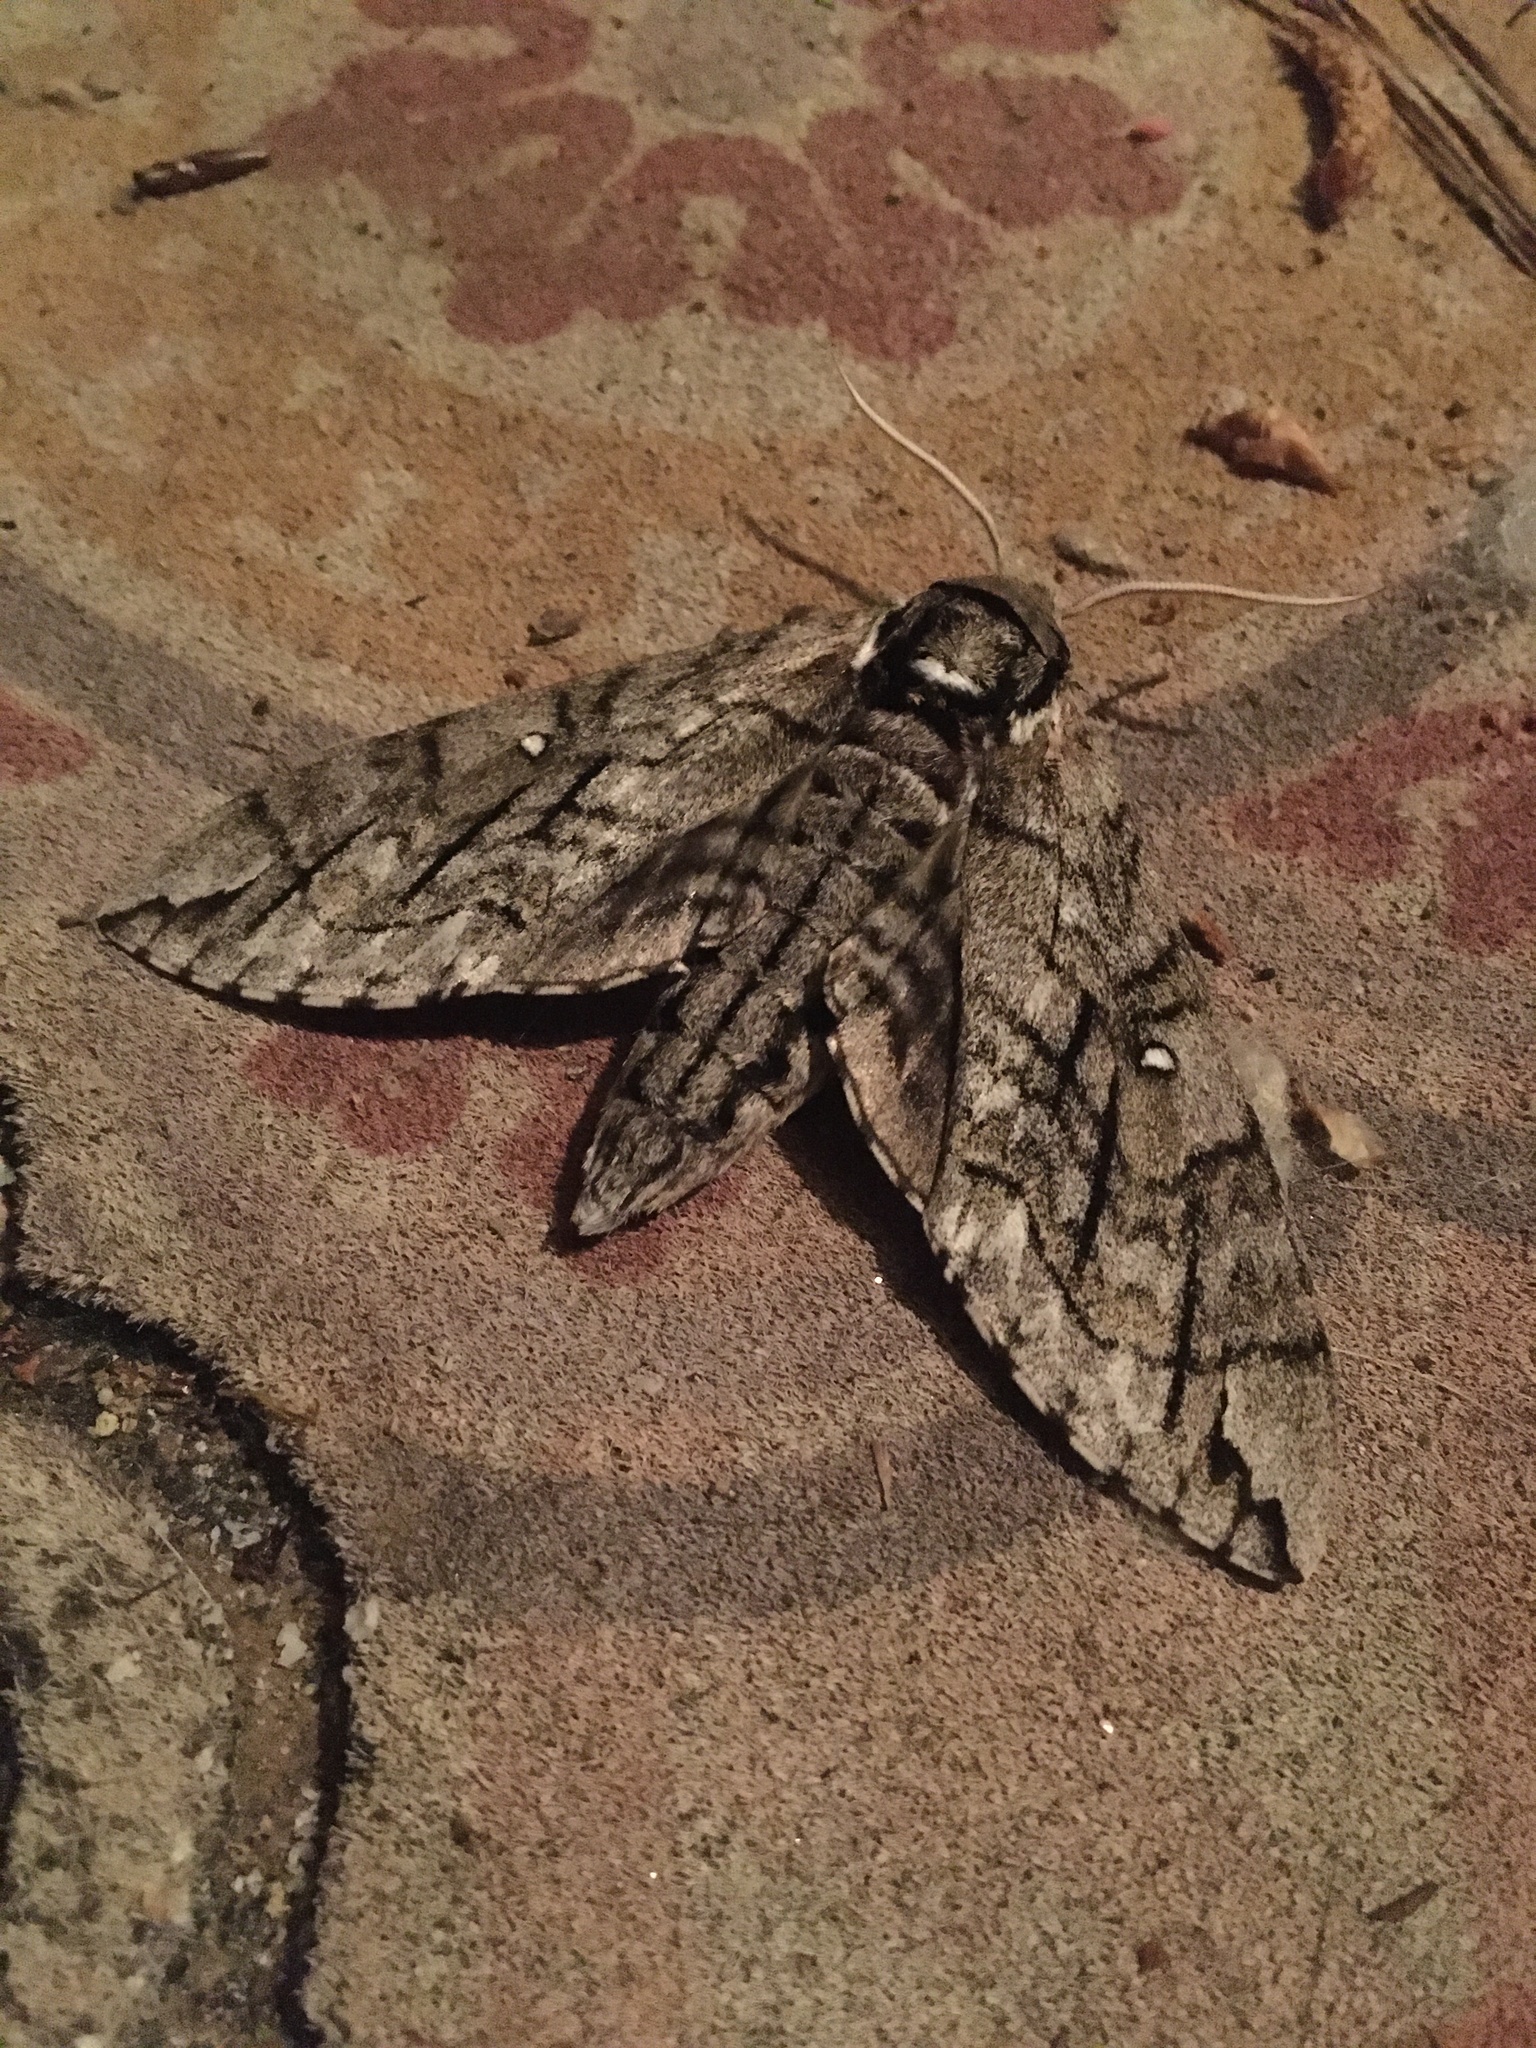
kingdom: Animalia
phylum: Arthropoda
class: Insecta
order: Lepidoptera
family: Sphingidae
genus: Ceratomia
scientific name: Ceratomia undulosa
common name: Waved sphinx
